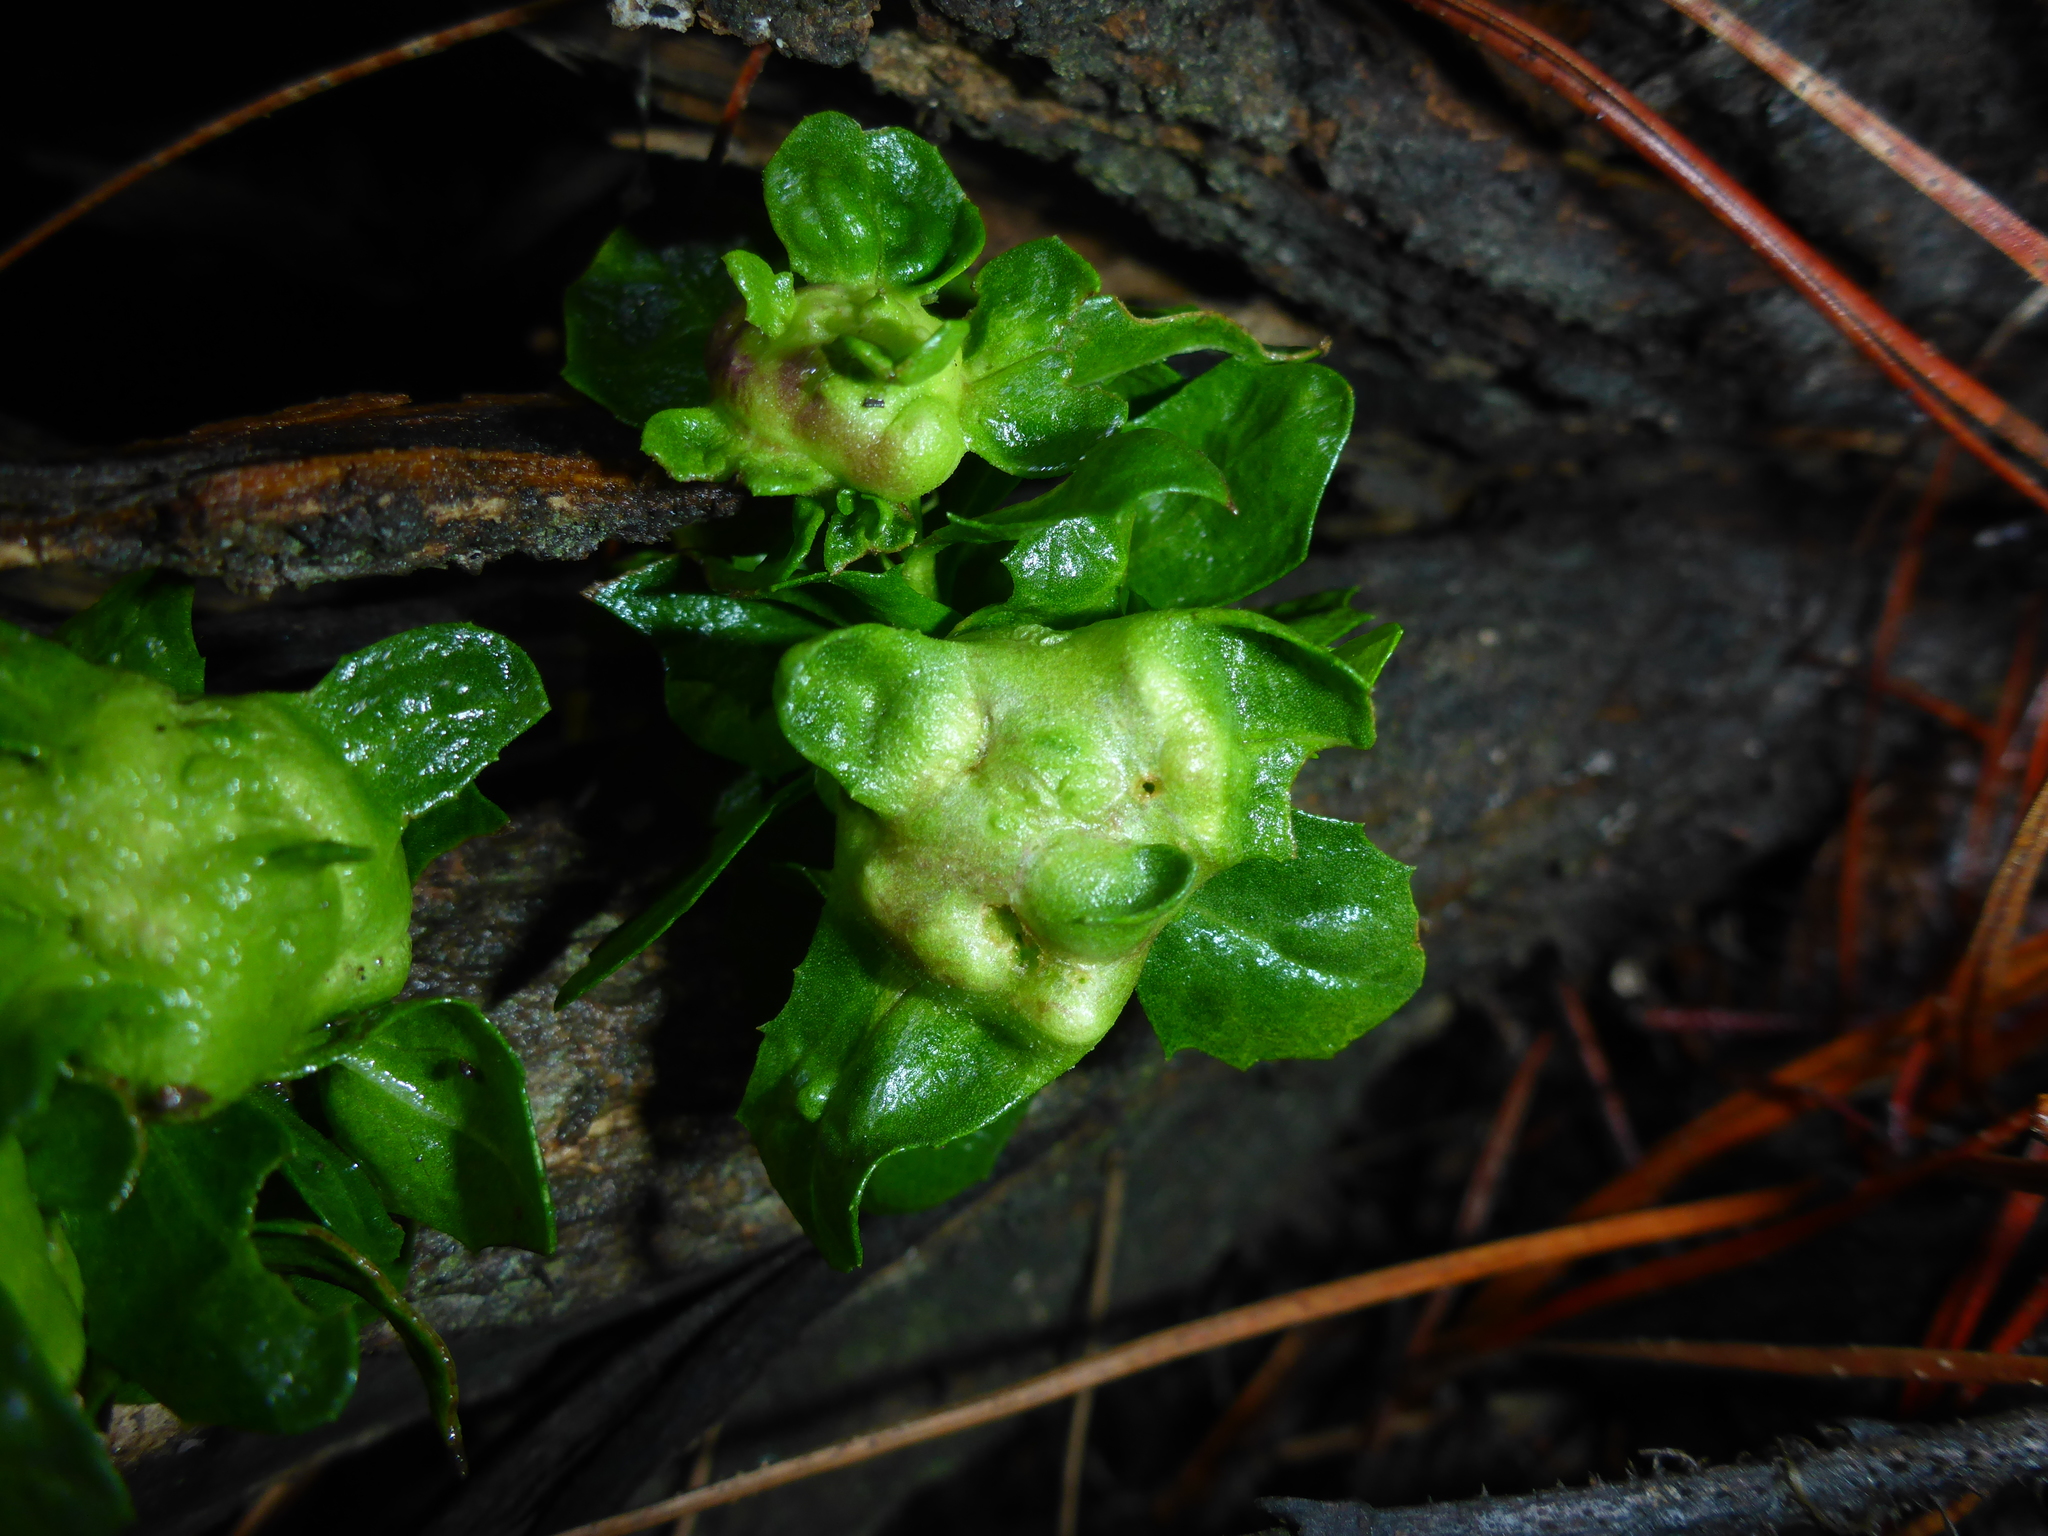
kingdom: Animalia
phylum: Arthropoda
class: Insecta
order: Diptera
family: Cecidomyiidae
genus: Rhopalomyia
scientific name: Rhopalomyia californica
